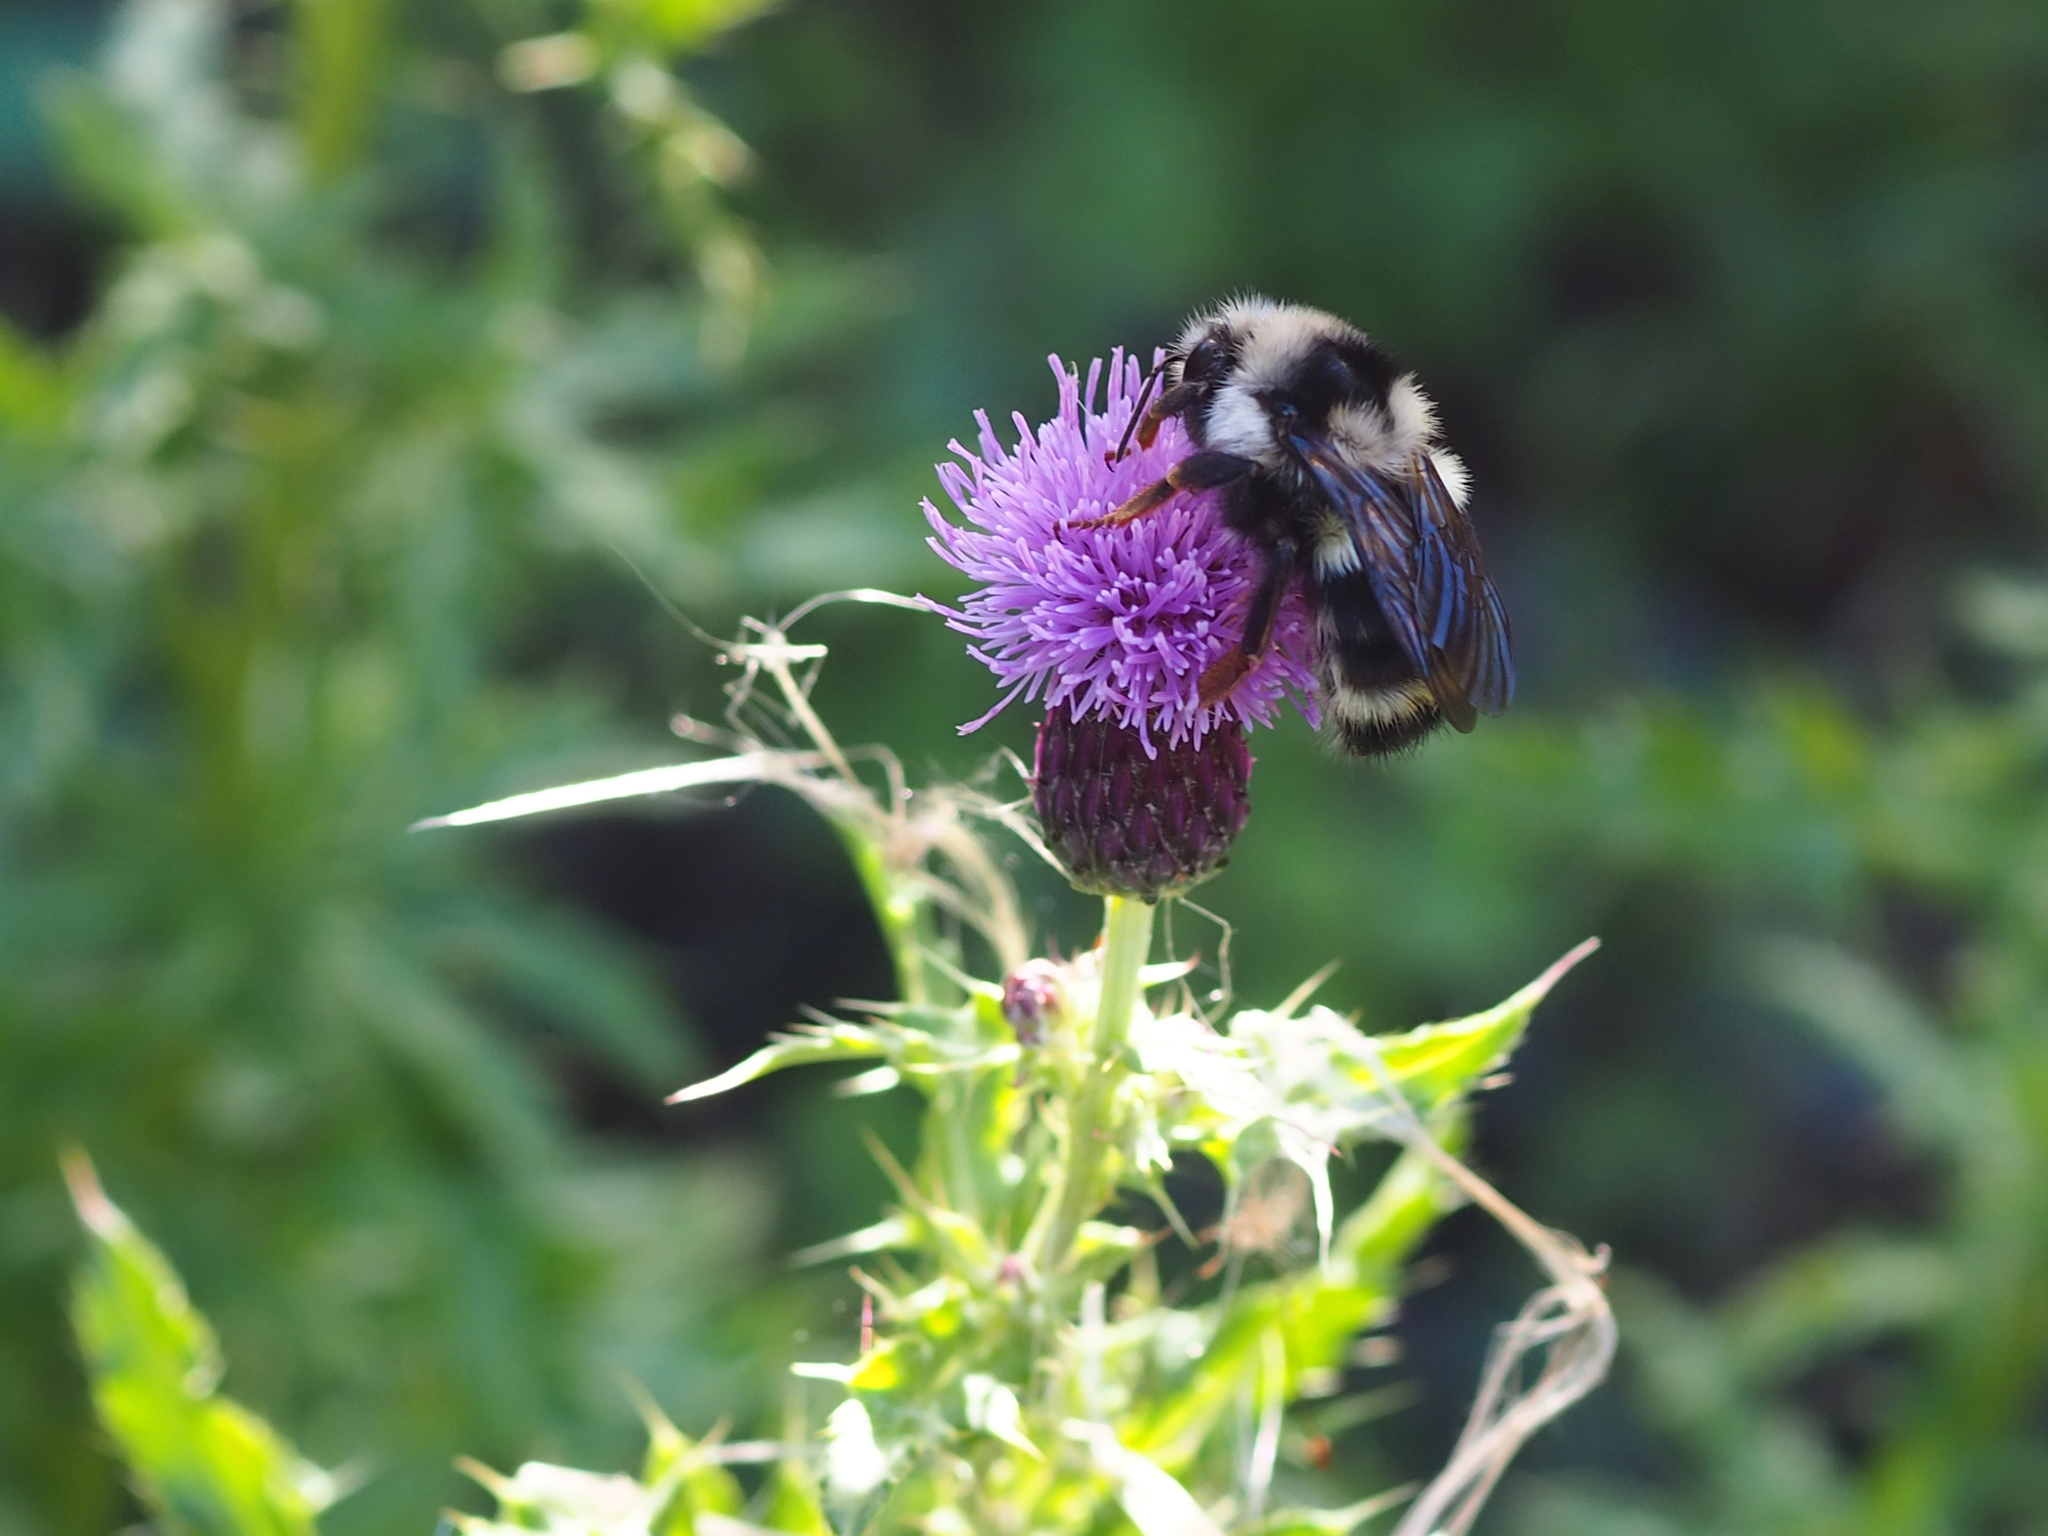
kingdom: Animalia
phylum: Arthropoda
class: Insecta
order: Hymenoptera
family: Apidae
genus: Bombus
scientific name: Bombus vancouverensis
